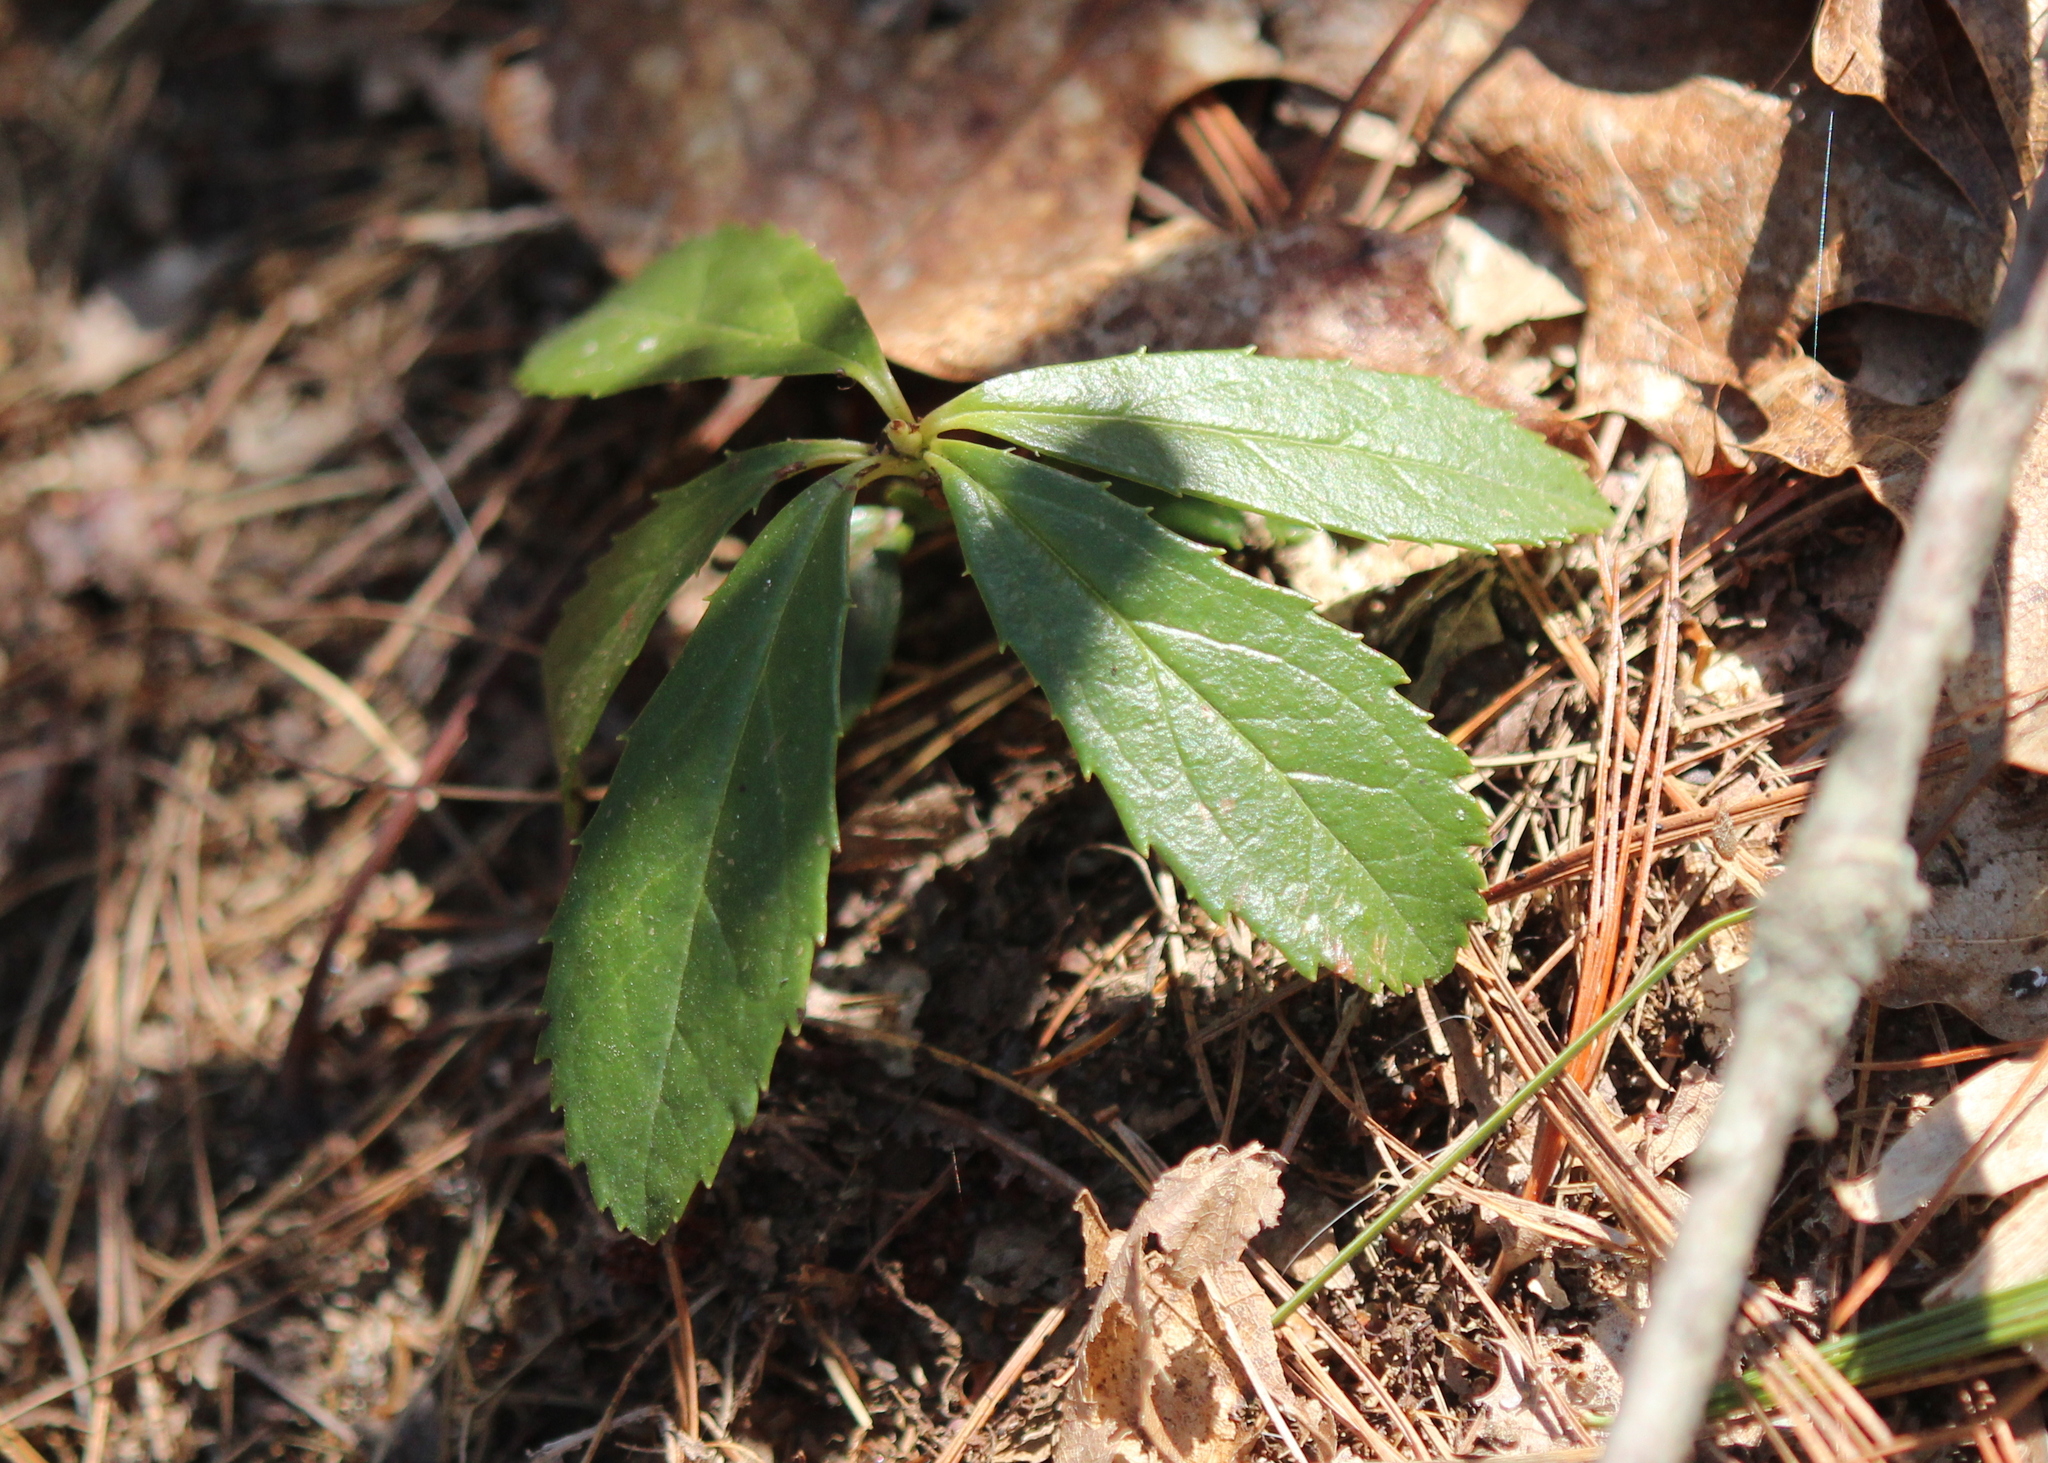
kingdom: Plantae
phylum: Tracheophyta
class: Magnoliopsida
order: Ericales
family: Ericaceae
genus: Chimaphila
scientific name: Chimaphila umbellata
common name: Pipsissewa
